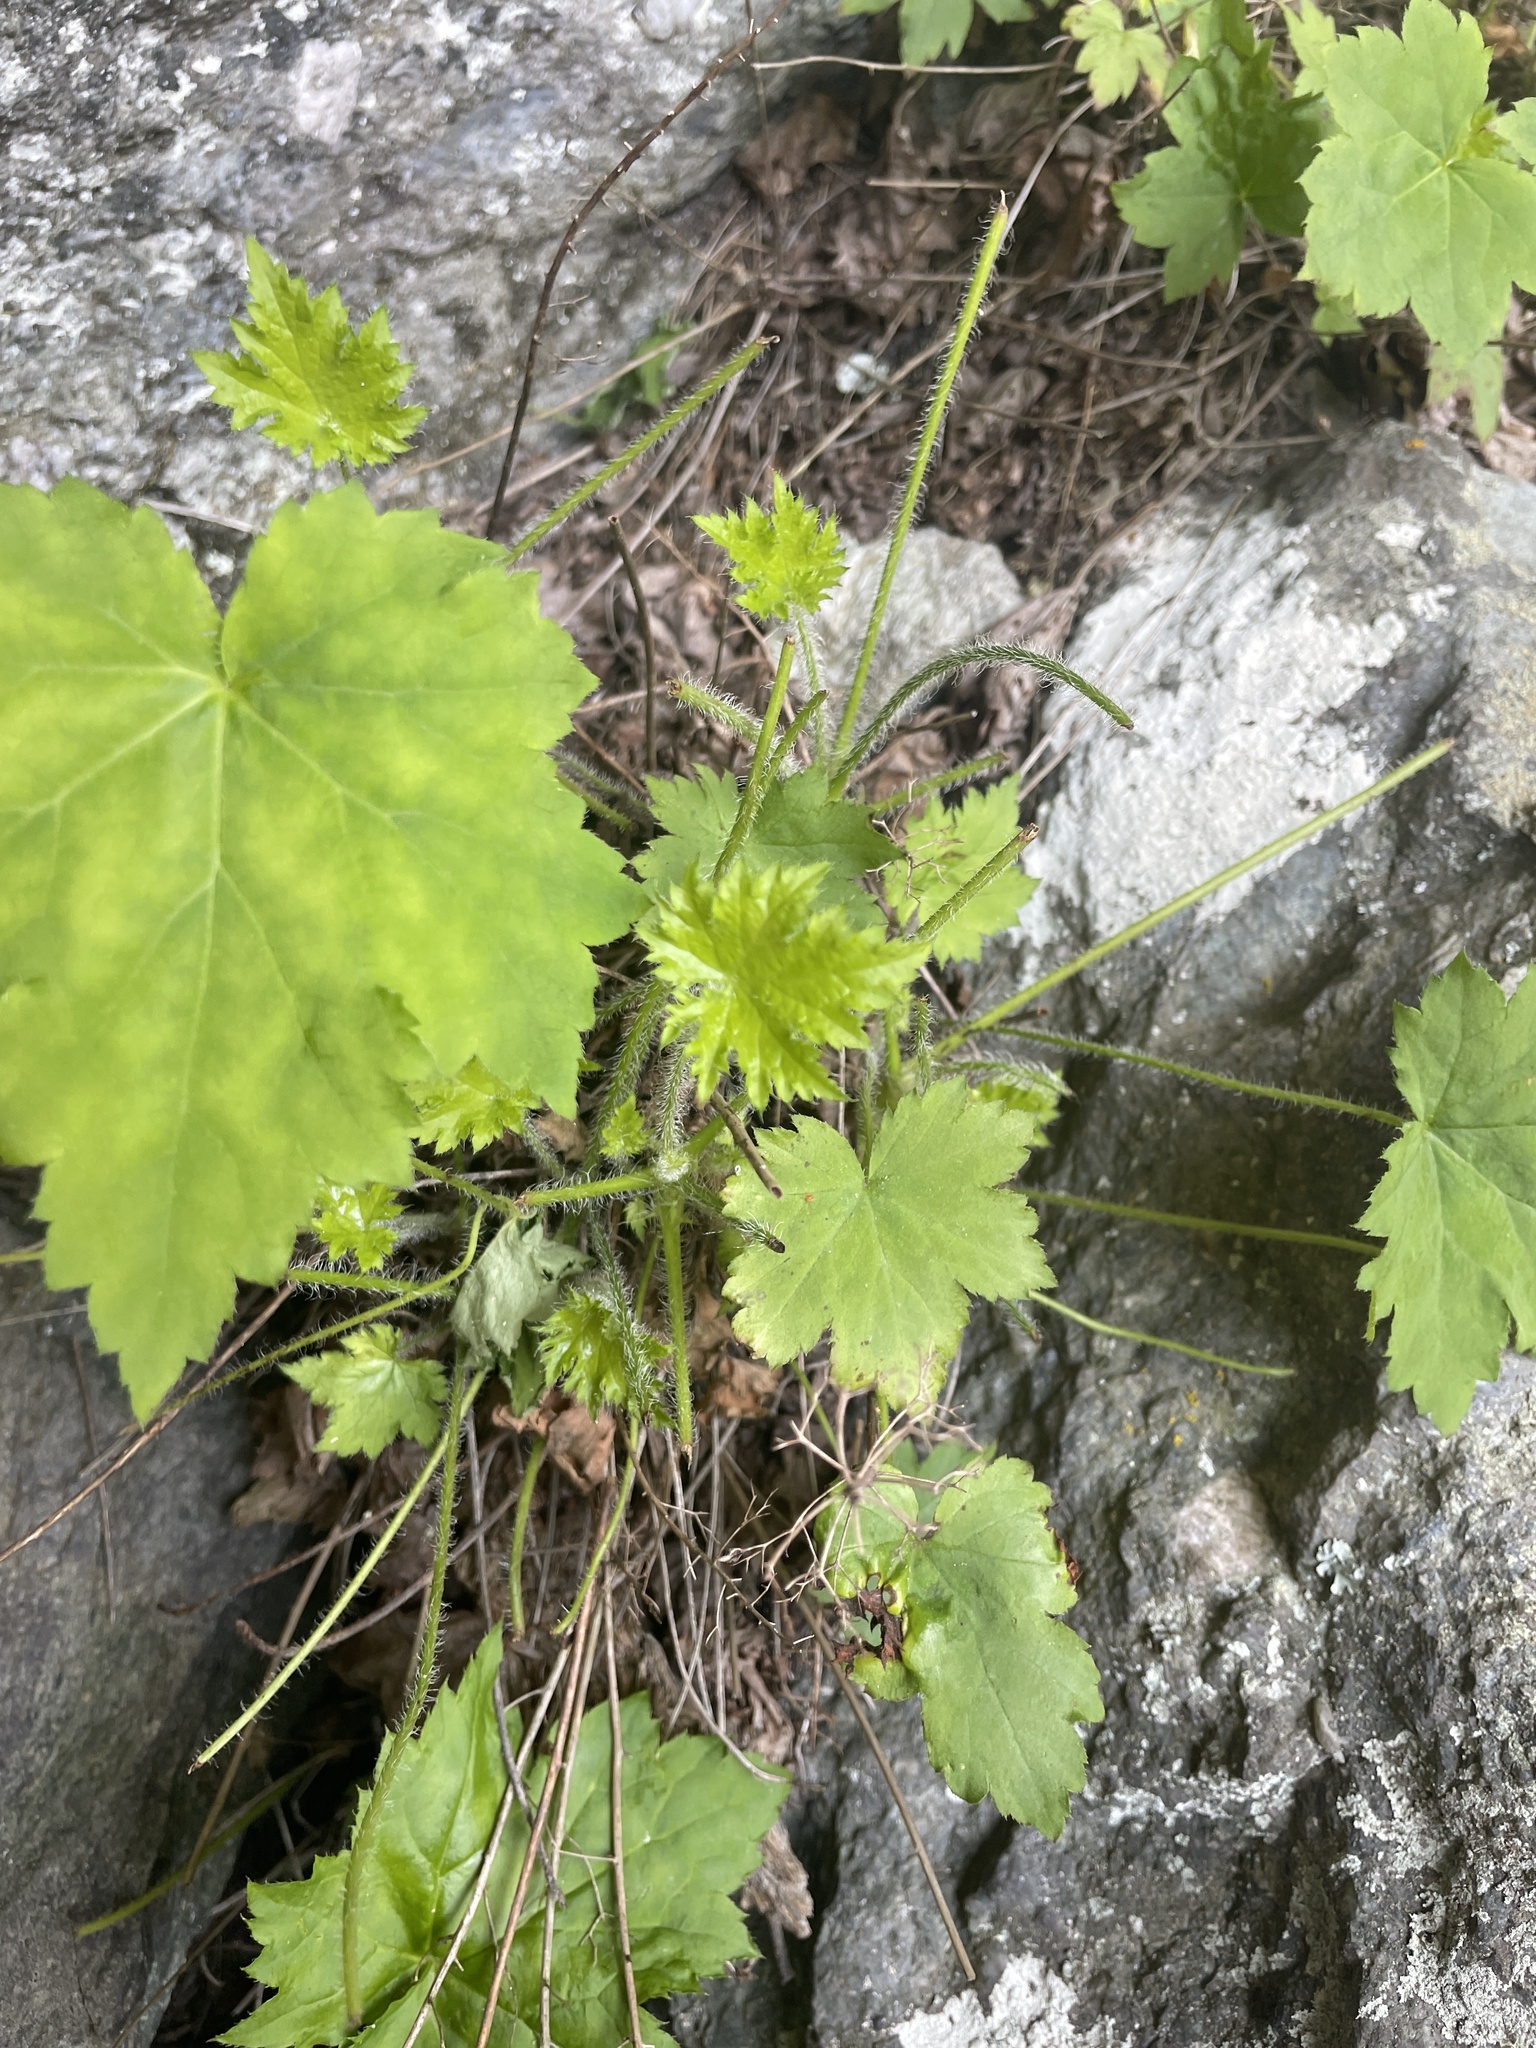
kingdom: Plantae
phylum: Tracheophyta
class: Magnoliopsida
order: Saxifragales
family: Saxifragaceae
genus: Heuchera
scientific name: Heuchera villosa
